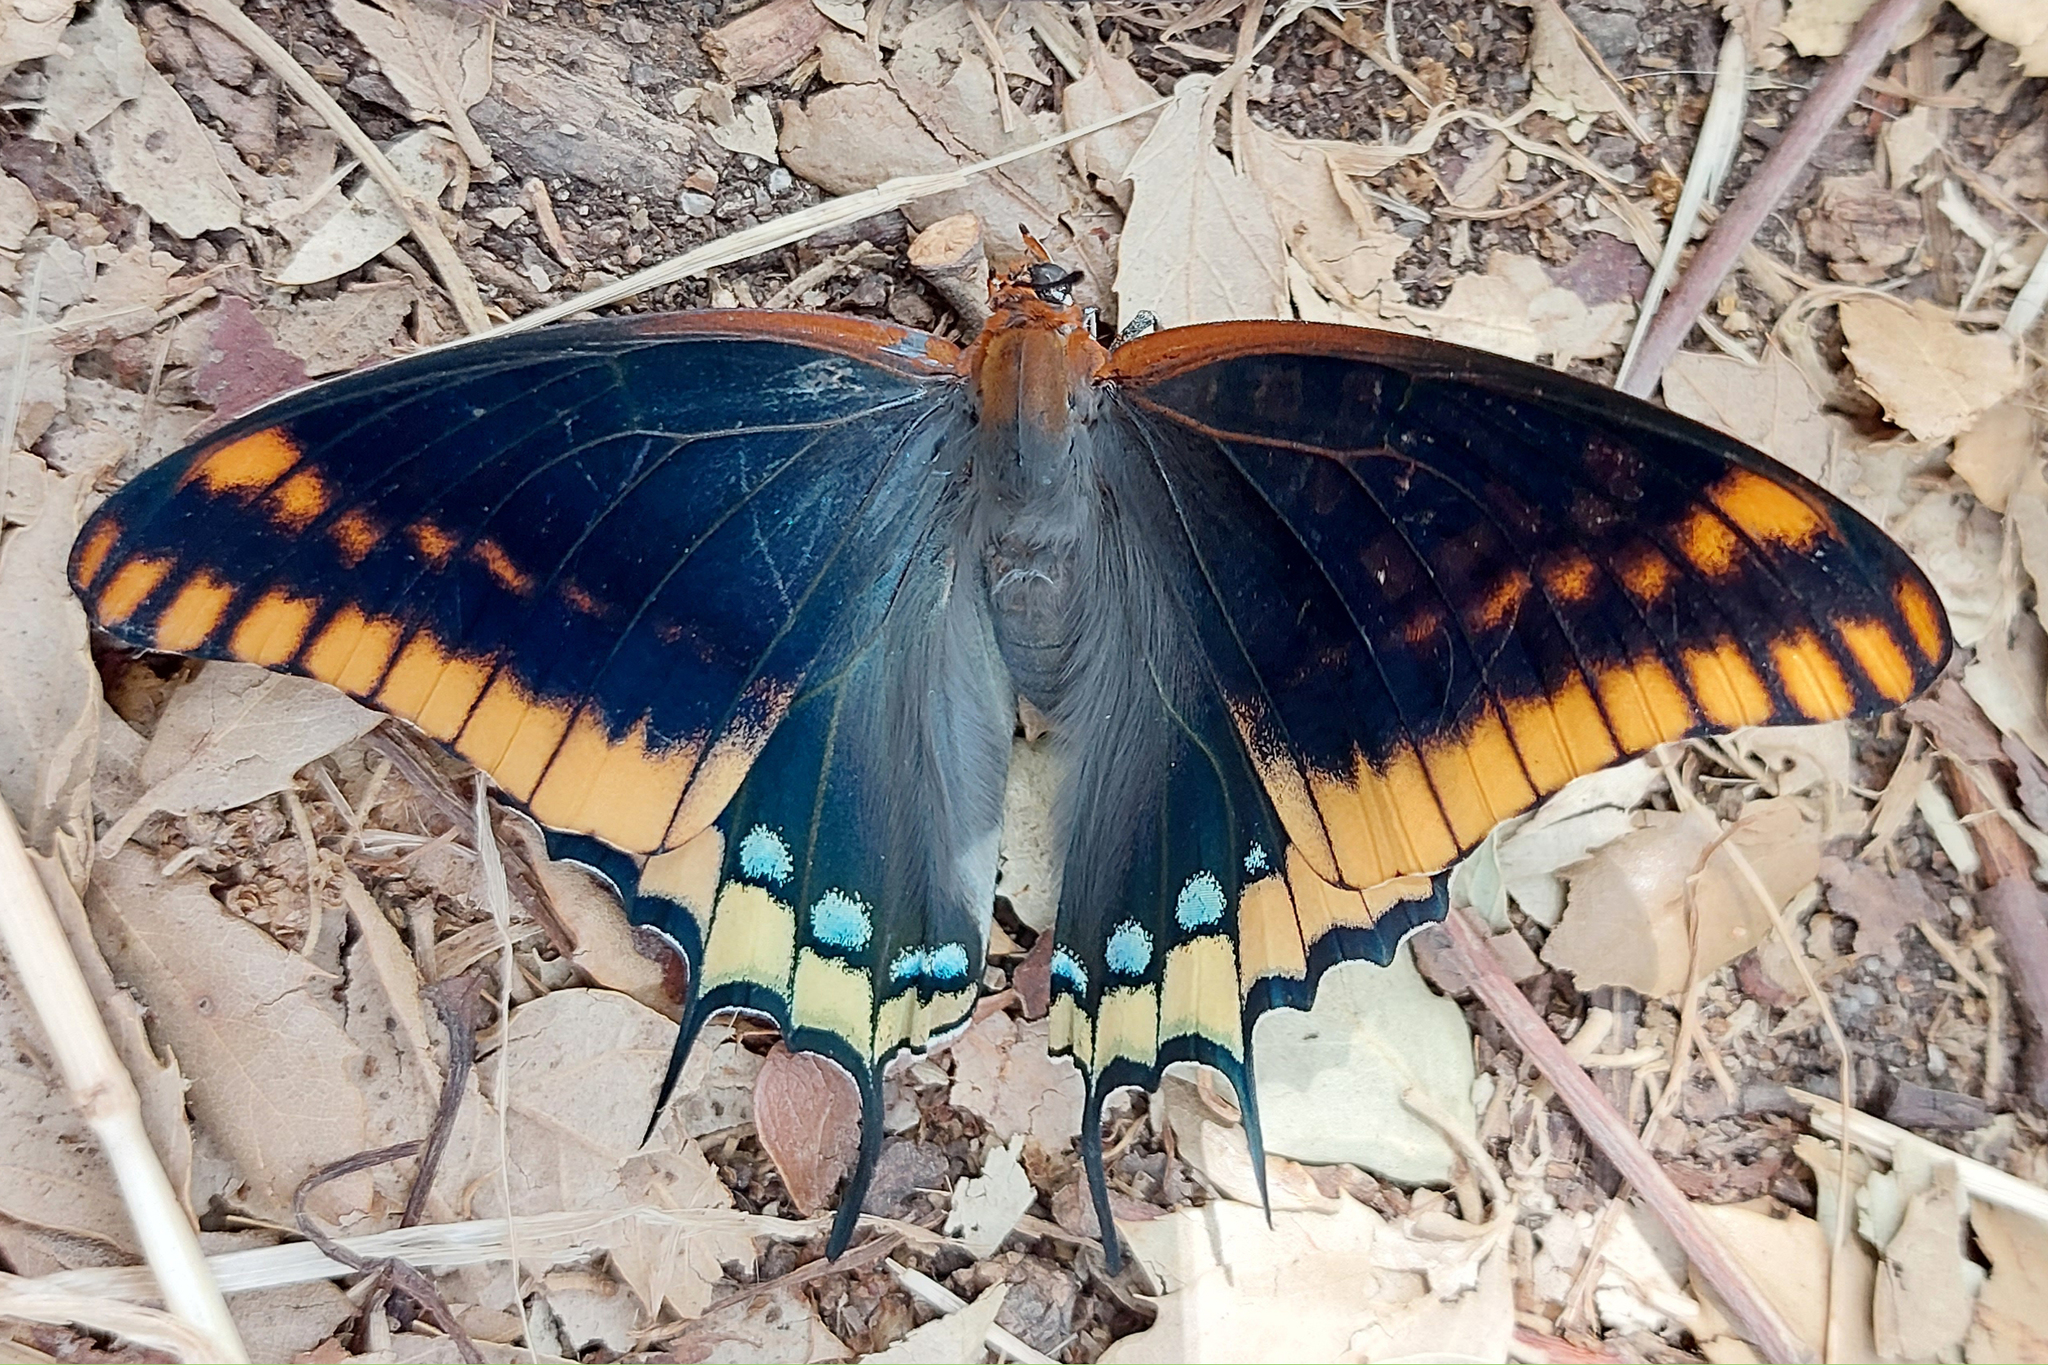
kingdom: Animalia
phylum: Arthropoda
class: Insecta
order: Lepidoptera
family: Nymphalidae
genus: Charaxes
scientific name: Charaxes jasius
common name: Two tailed pasha
